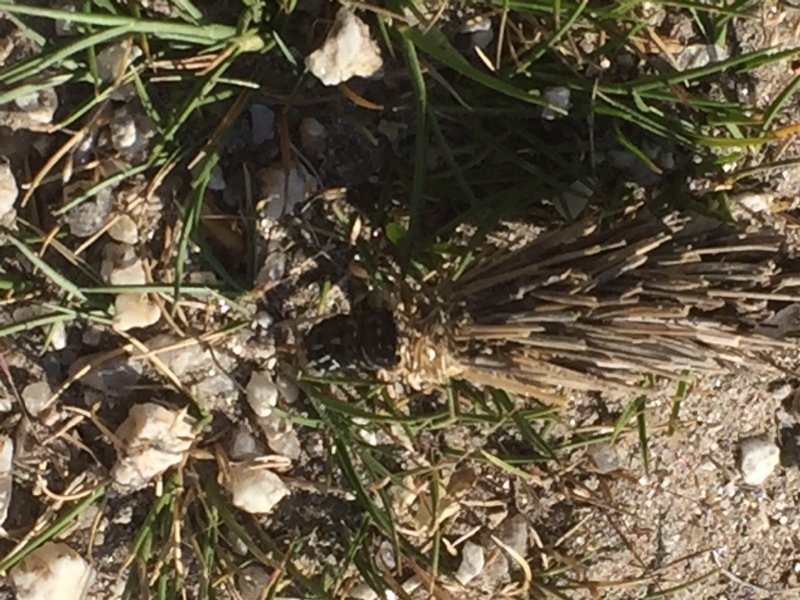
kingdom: Animalia
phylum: Arthropoda
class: Insecta
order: Lepidoptera
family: Psychidae
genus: Oiketicoides
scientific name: Oiketicoides febretta
